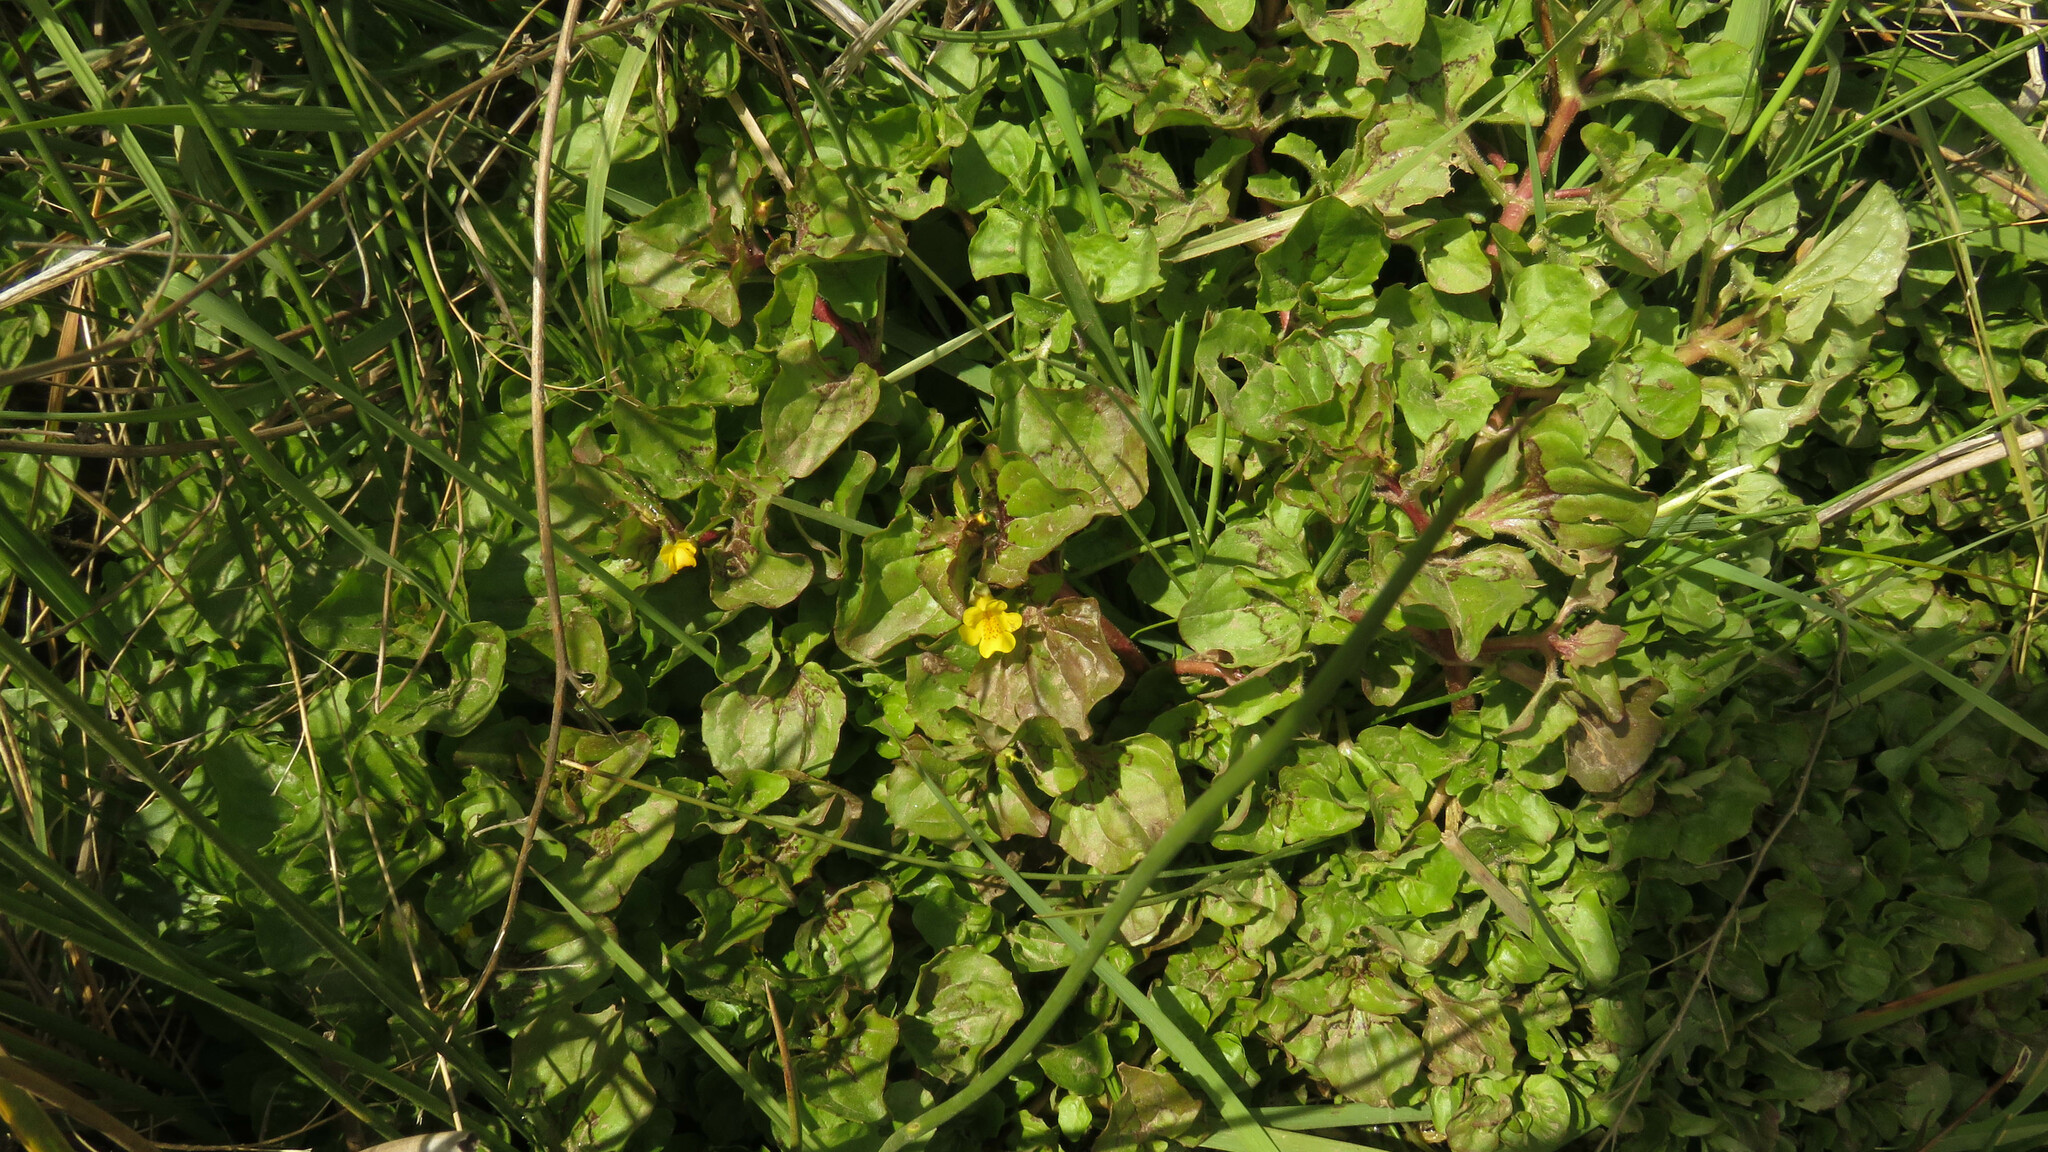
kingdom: Plantae
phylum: Tracheophyta
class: Magnoliopsida
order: Lamiales
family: Phrymaceae
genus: Erythranthe
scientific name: Erythranthe glabrata
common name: Round-leaved monkeyflower
